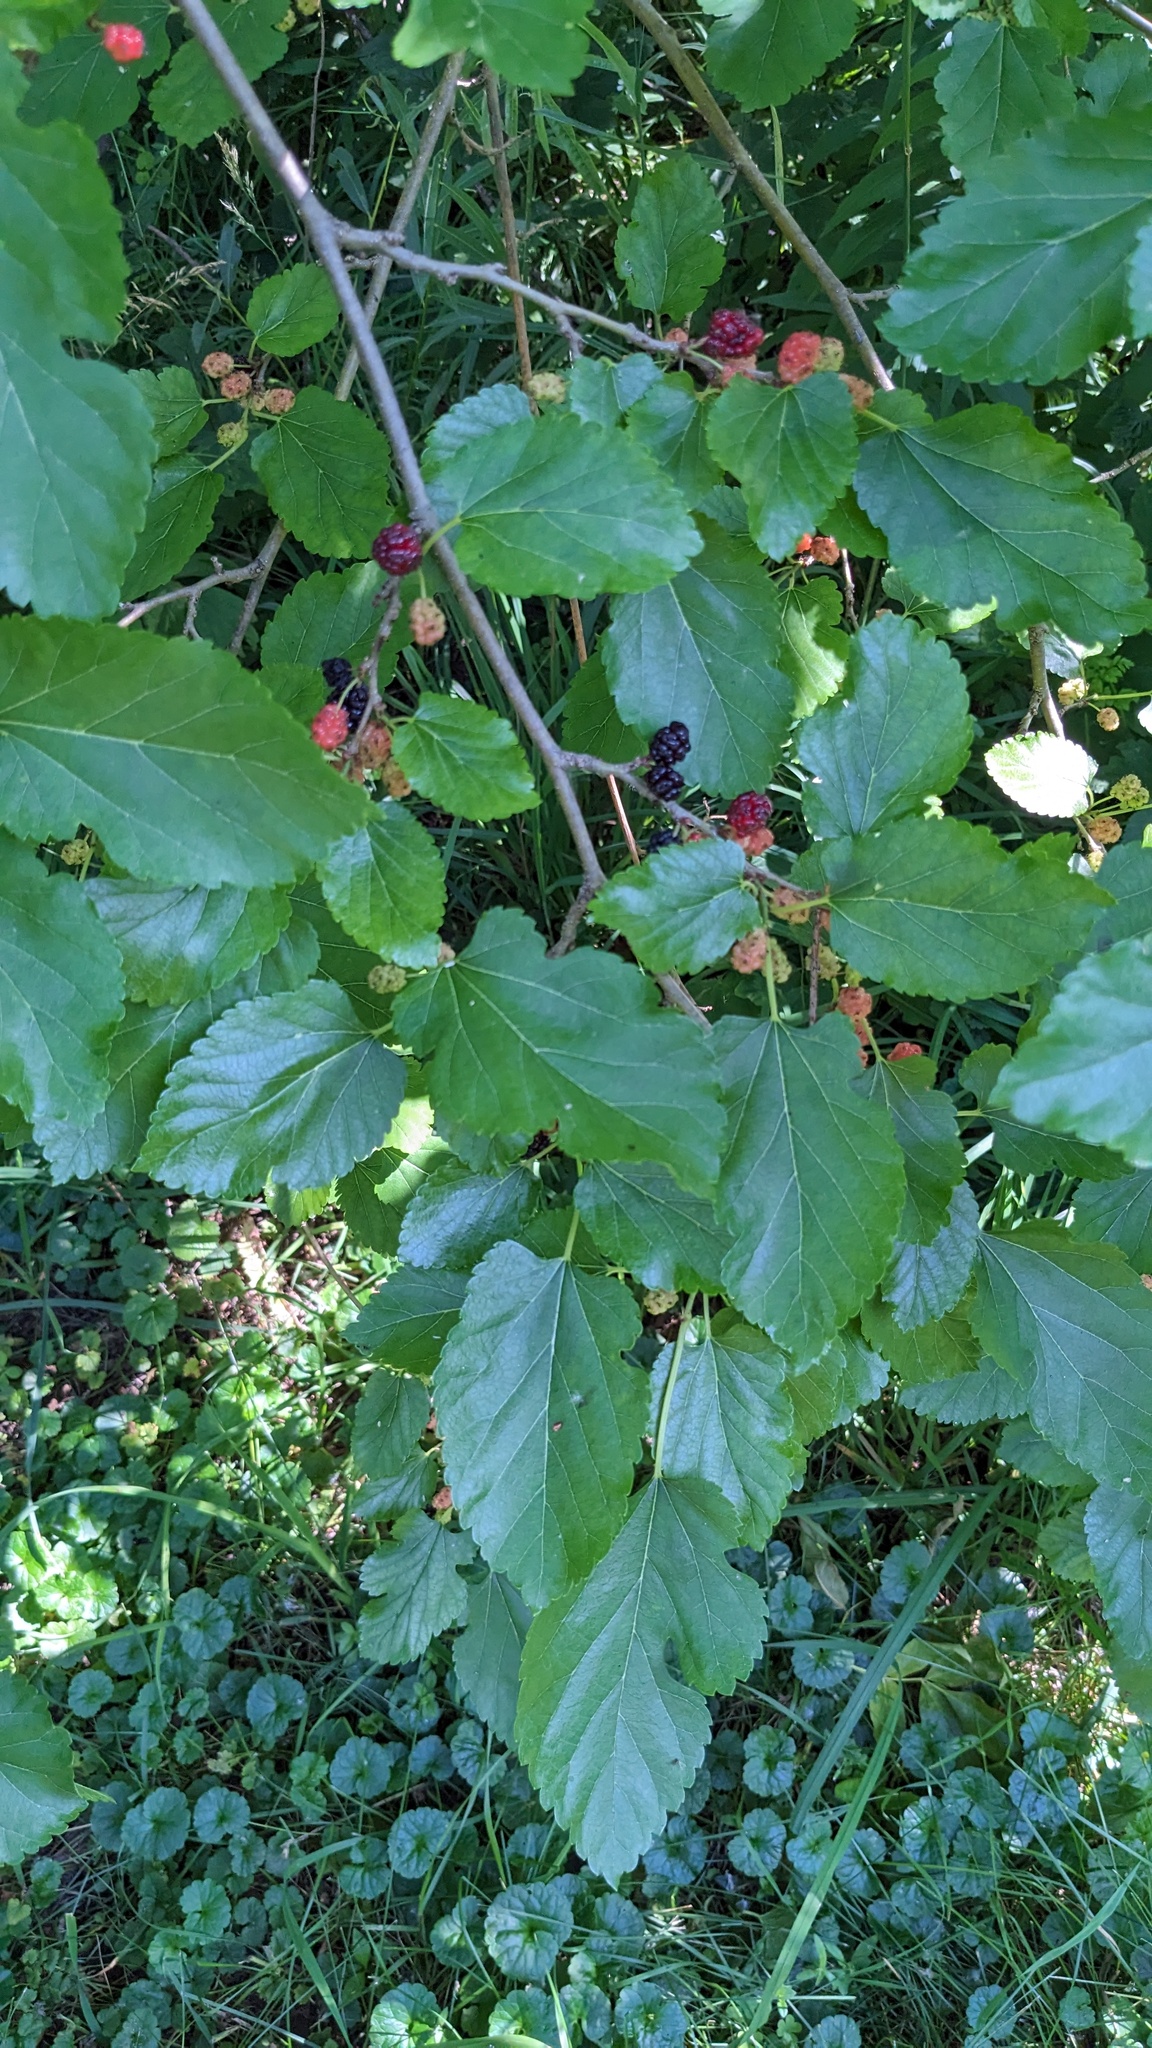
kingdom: Plantae
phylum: Tracheophyta
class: Magnoliopsida
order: Rosales
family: Moraceae
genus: Morus
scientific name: Morus alba
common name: White mulberry
